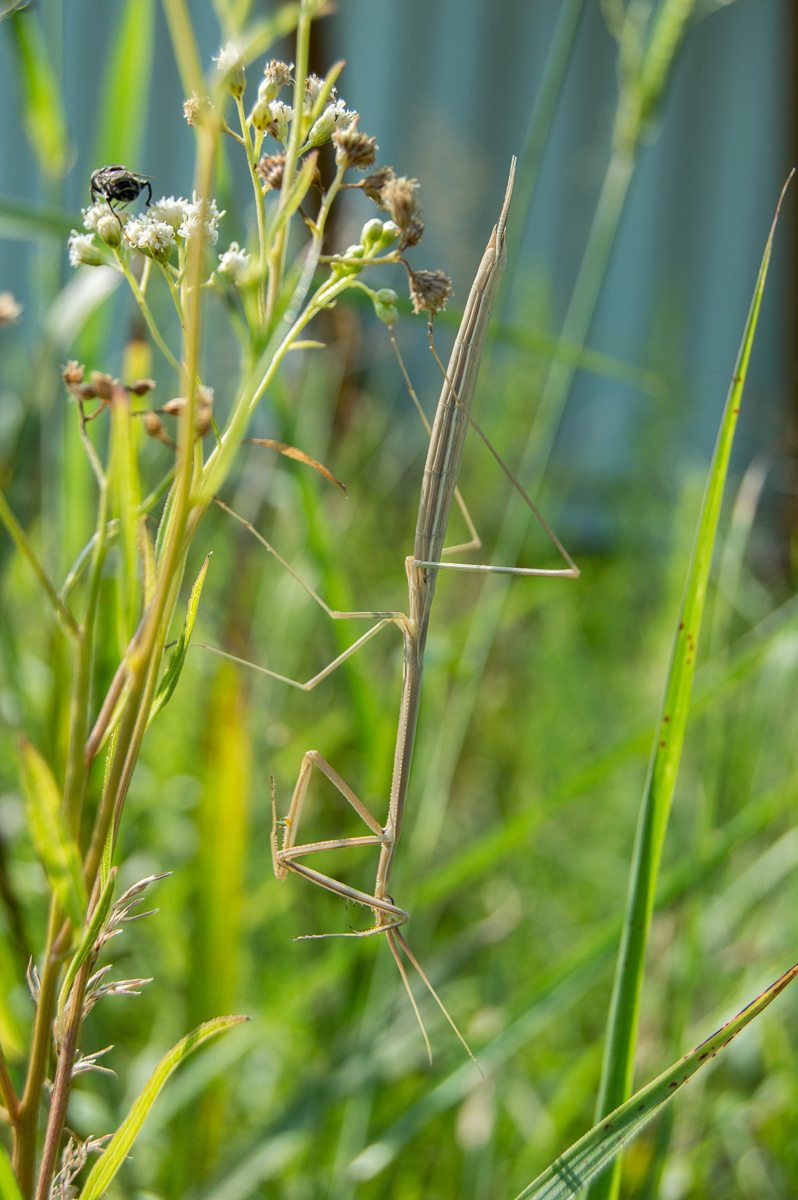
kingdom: Animalia
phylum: Arthropoda
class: Insecta
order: Mantodea
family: Coptopterygidae
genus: Brunneria
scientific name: Brunneria subaptera
